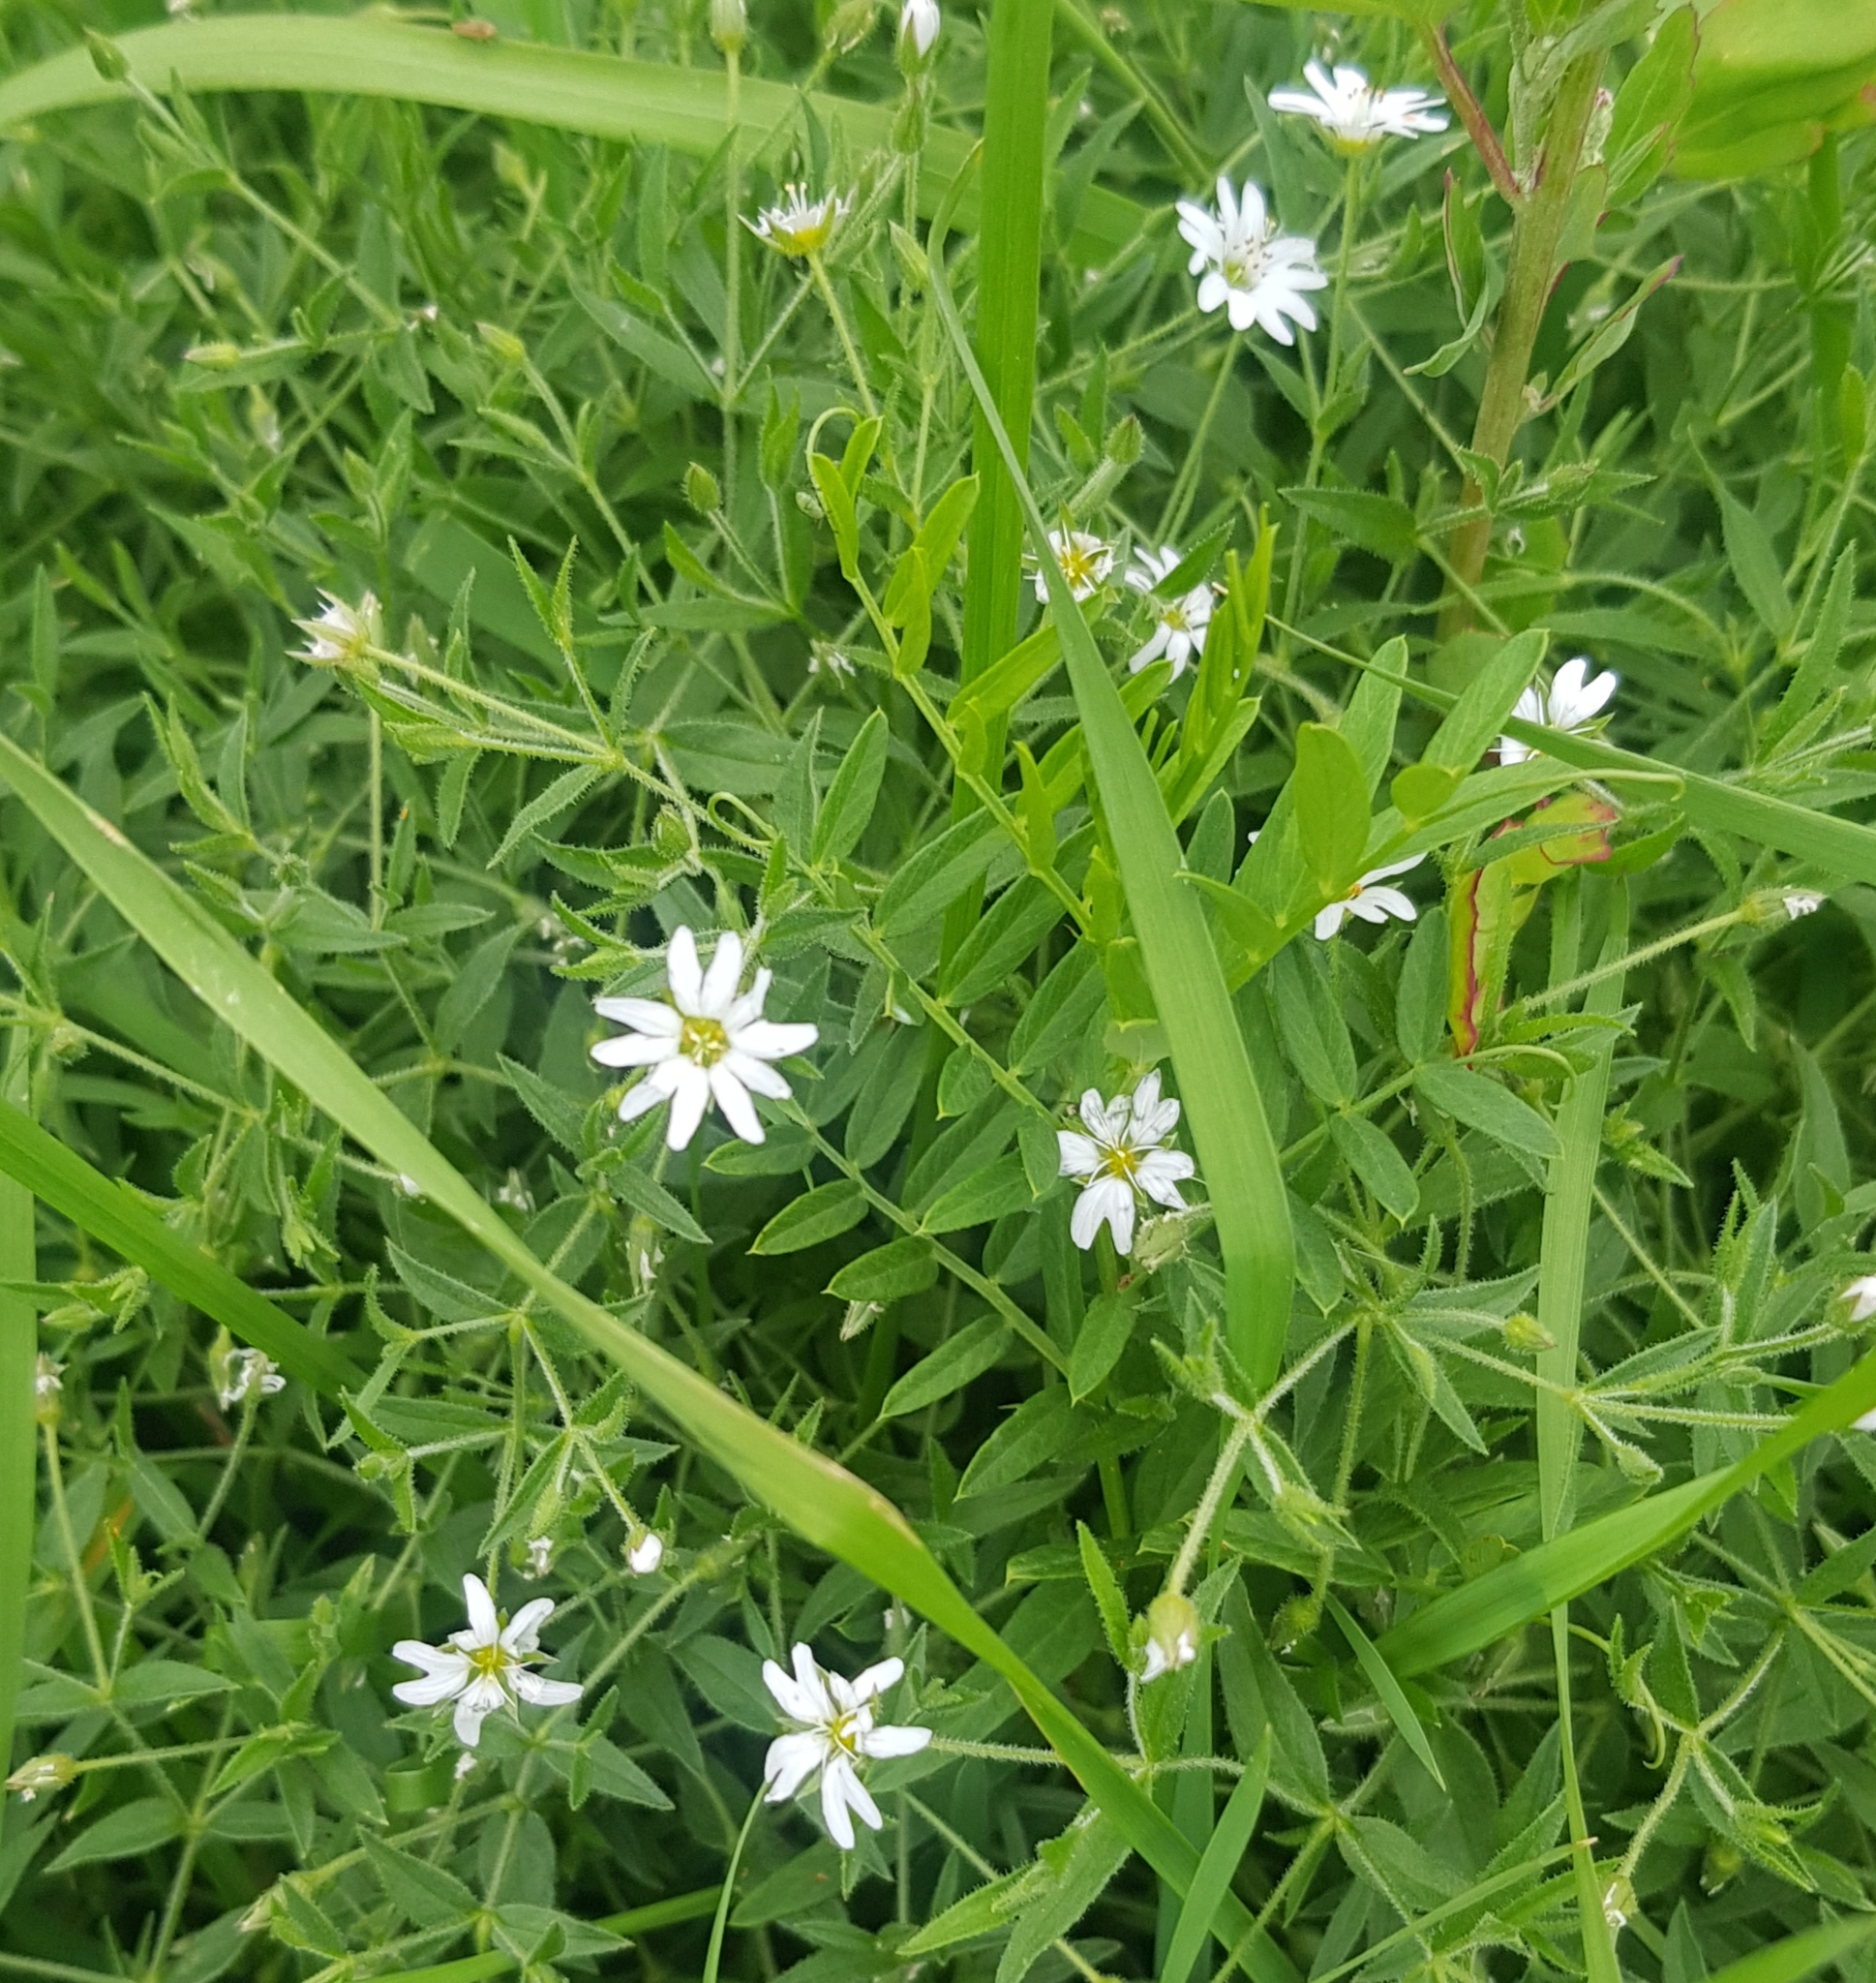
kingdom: Plantae
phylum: Tracheophyta
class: Magnoliopsida
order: Caryophyllales
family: Caryophyllaceae
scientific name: Caryophyllaceae
